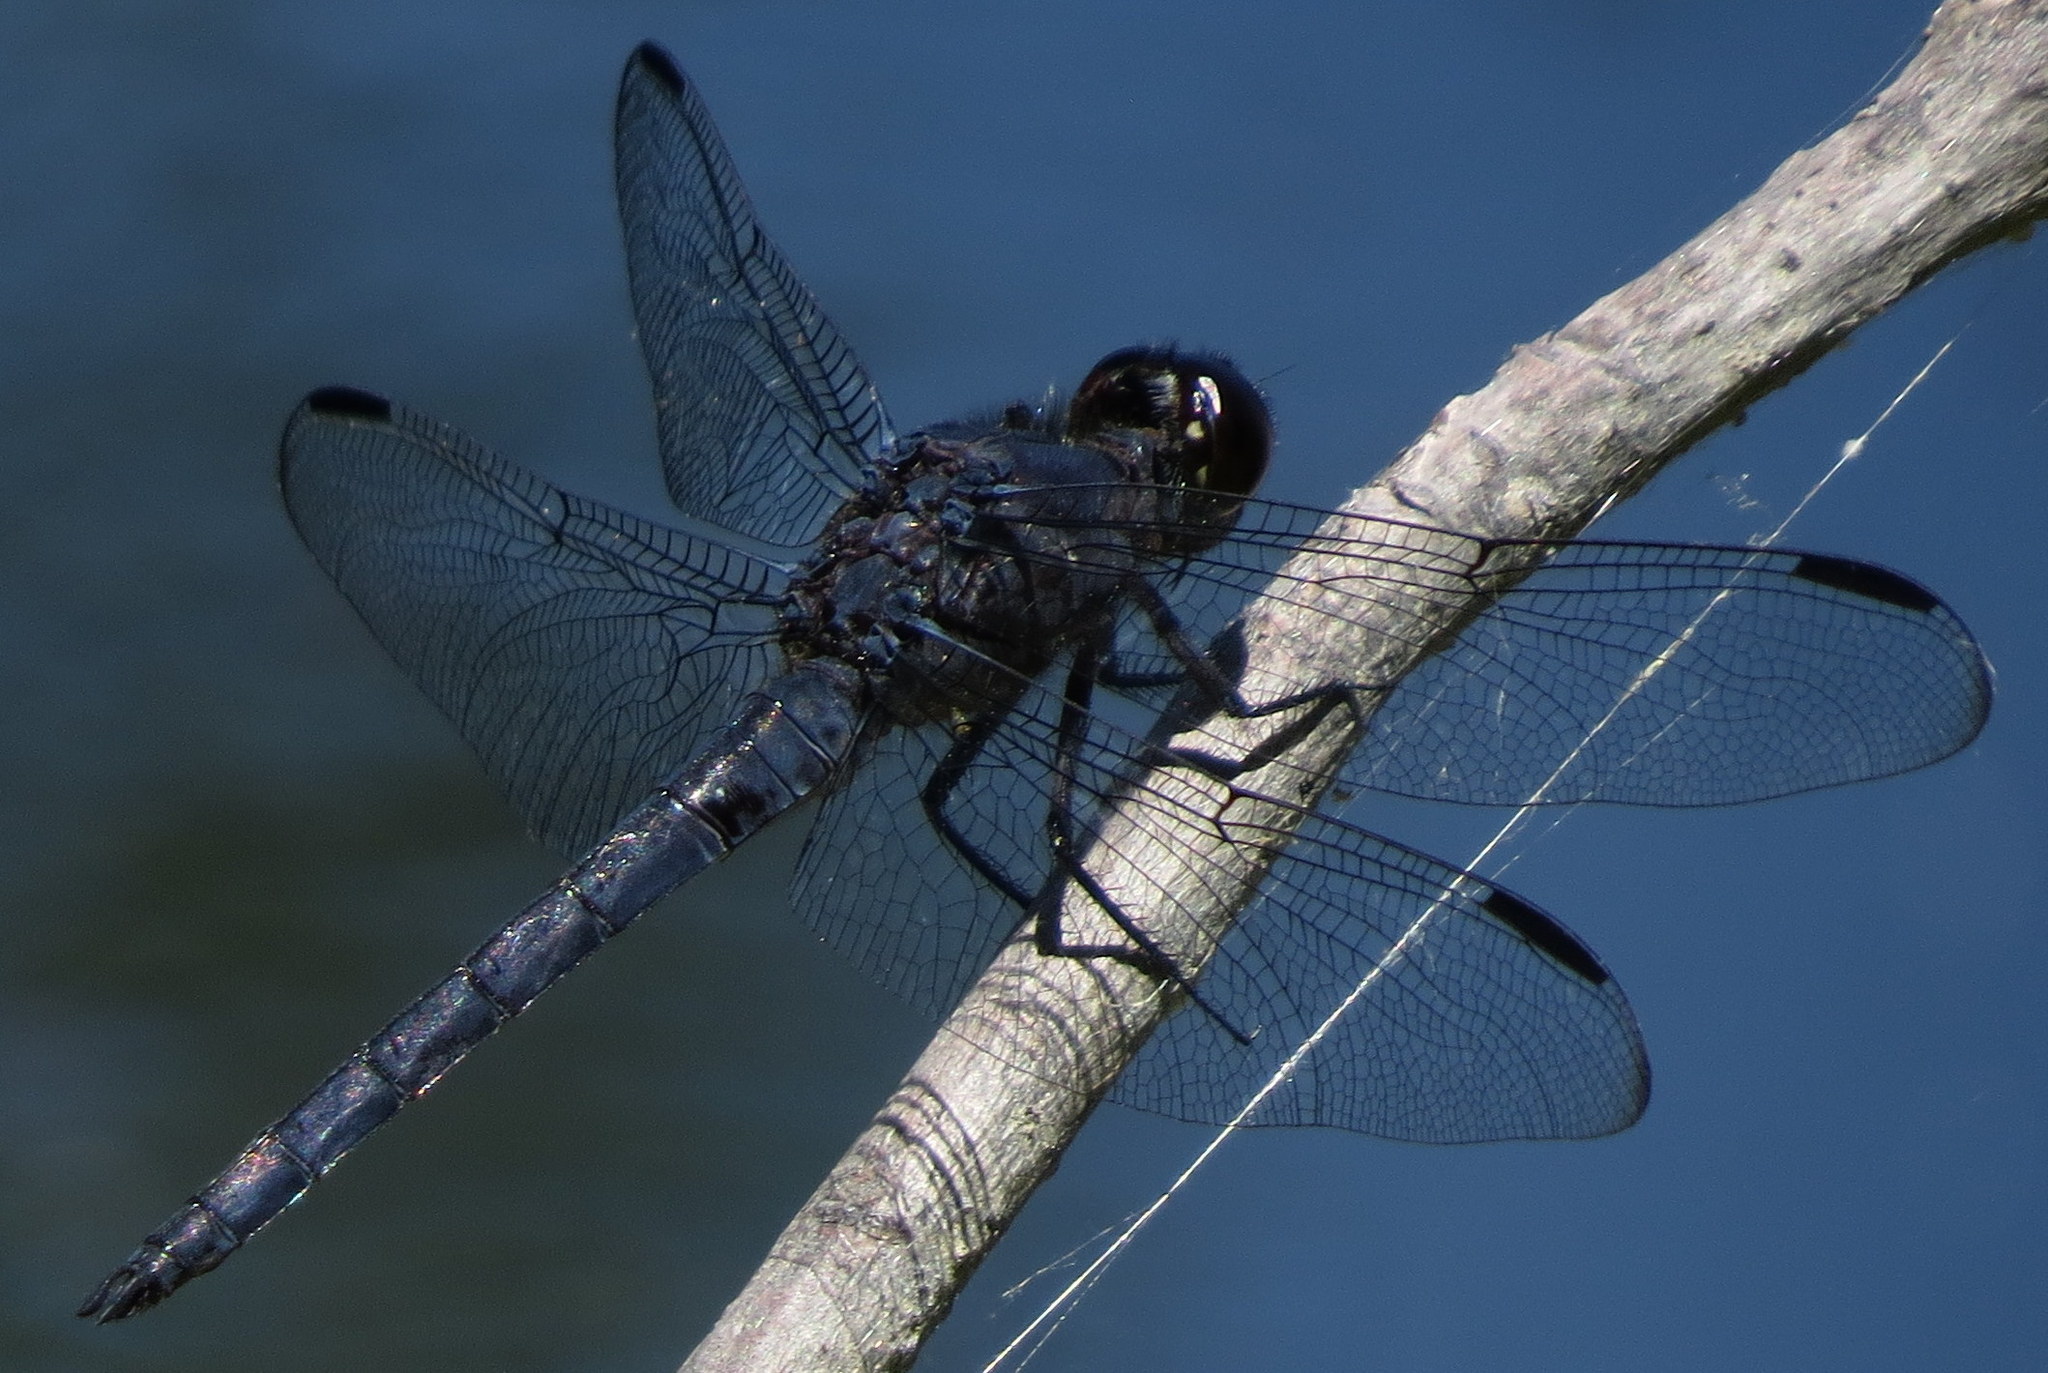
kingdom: Animalia
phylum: Arthropoda
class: Insecta
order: Odonata
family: Libellulidae
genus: Libellula
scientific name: Libellula incesta
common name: Slaty skimmer
